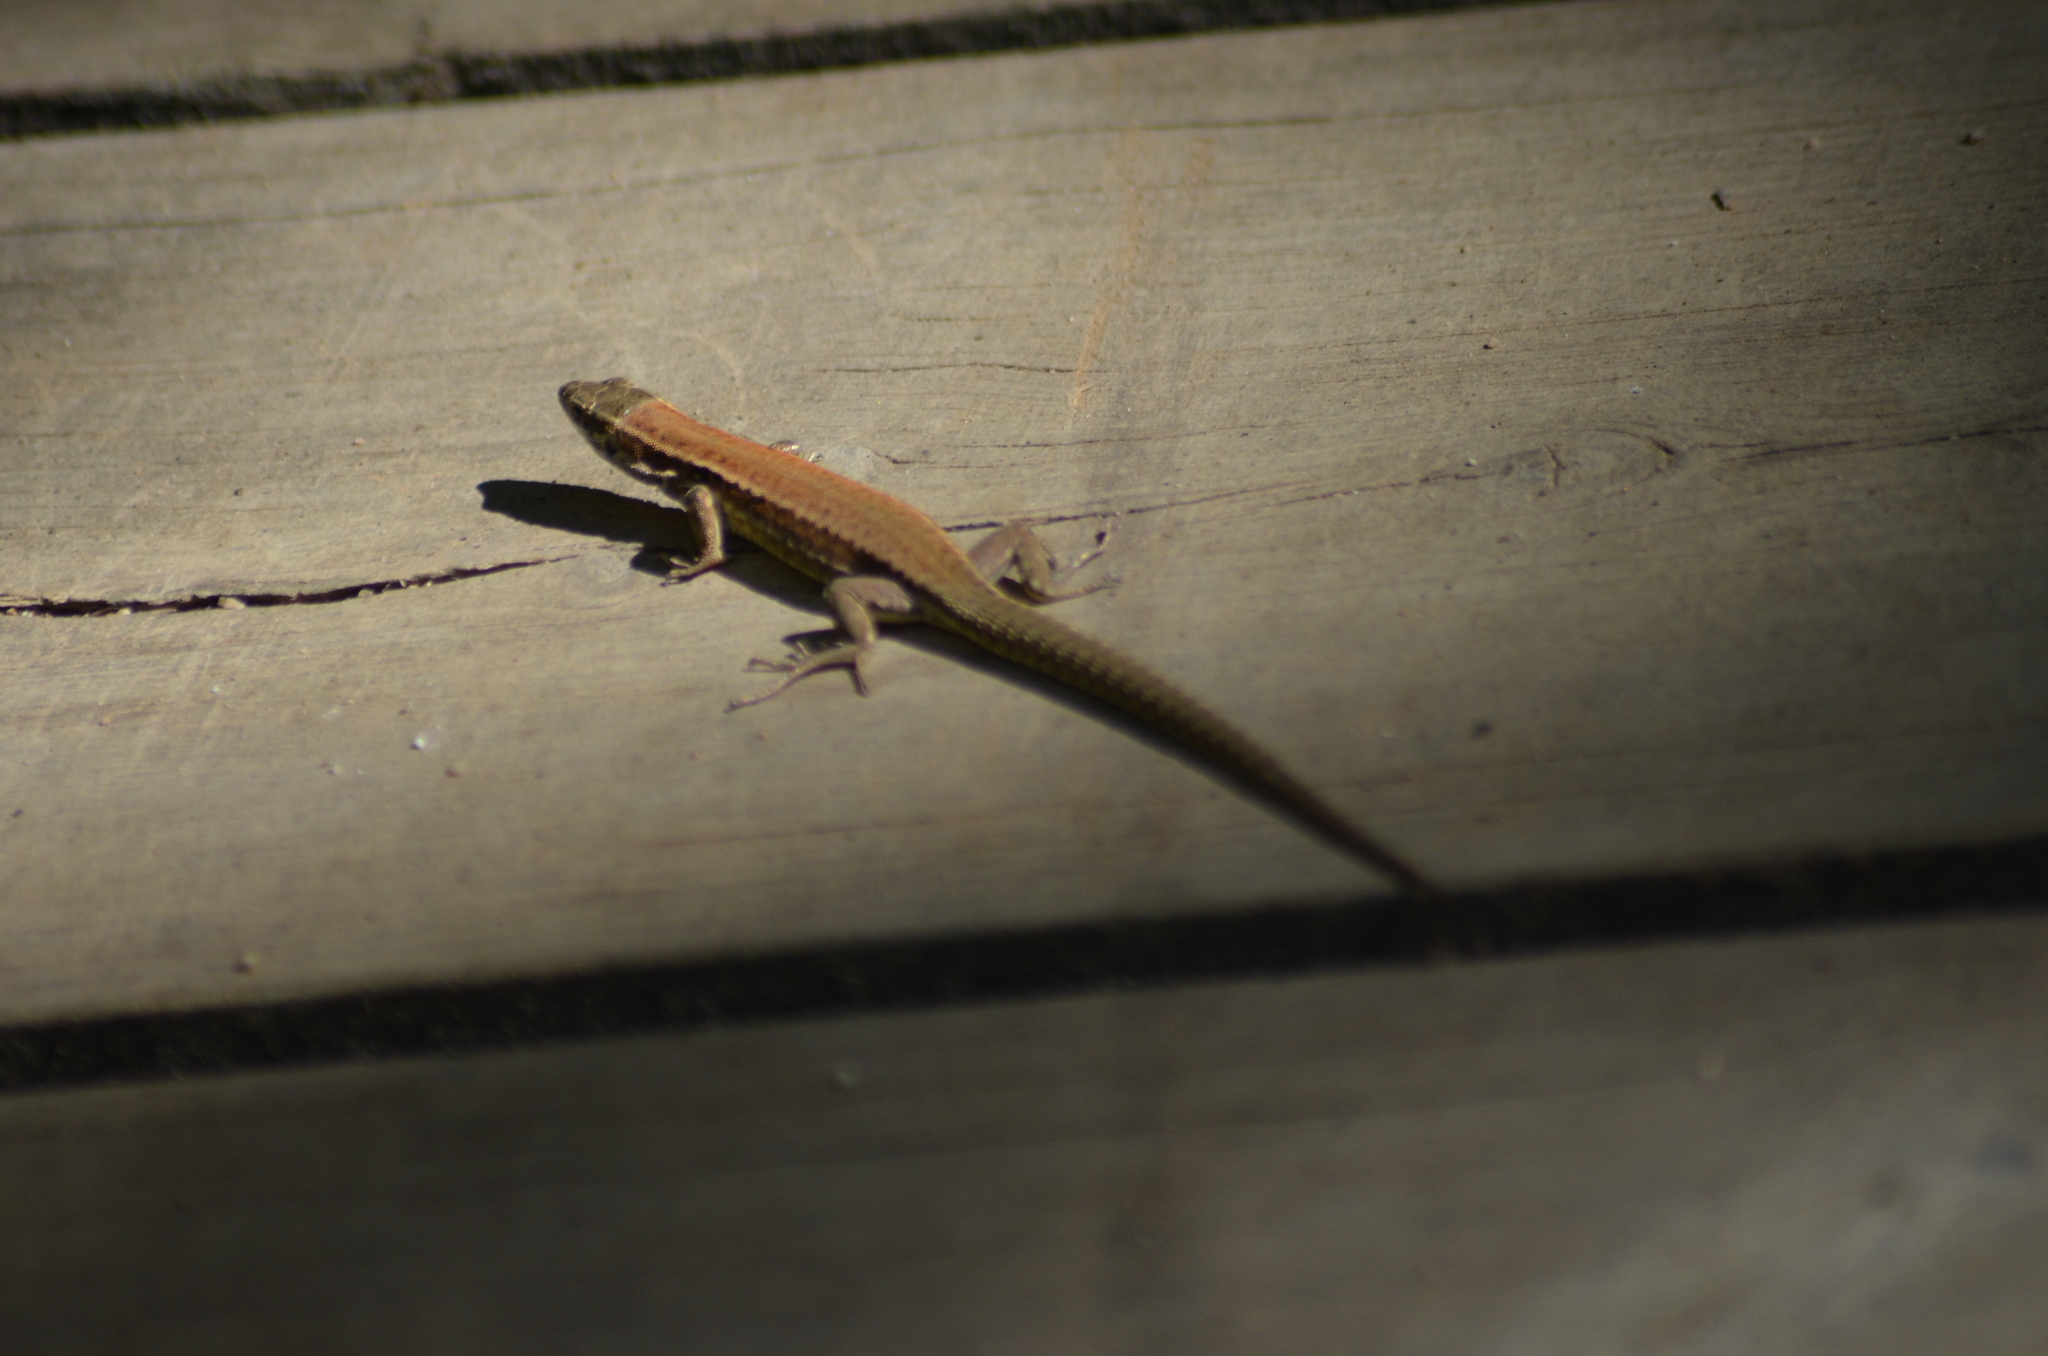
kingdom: Animalia
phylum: Chordata
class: Squamata
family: Lacertidae
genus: Podarcis
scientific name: Podarcis liolepis
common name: Catalonian wall lizard
